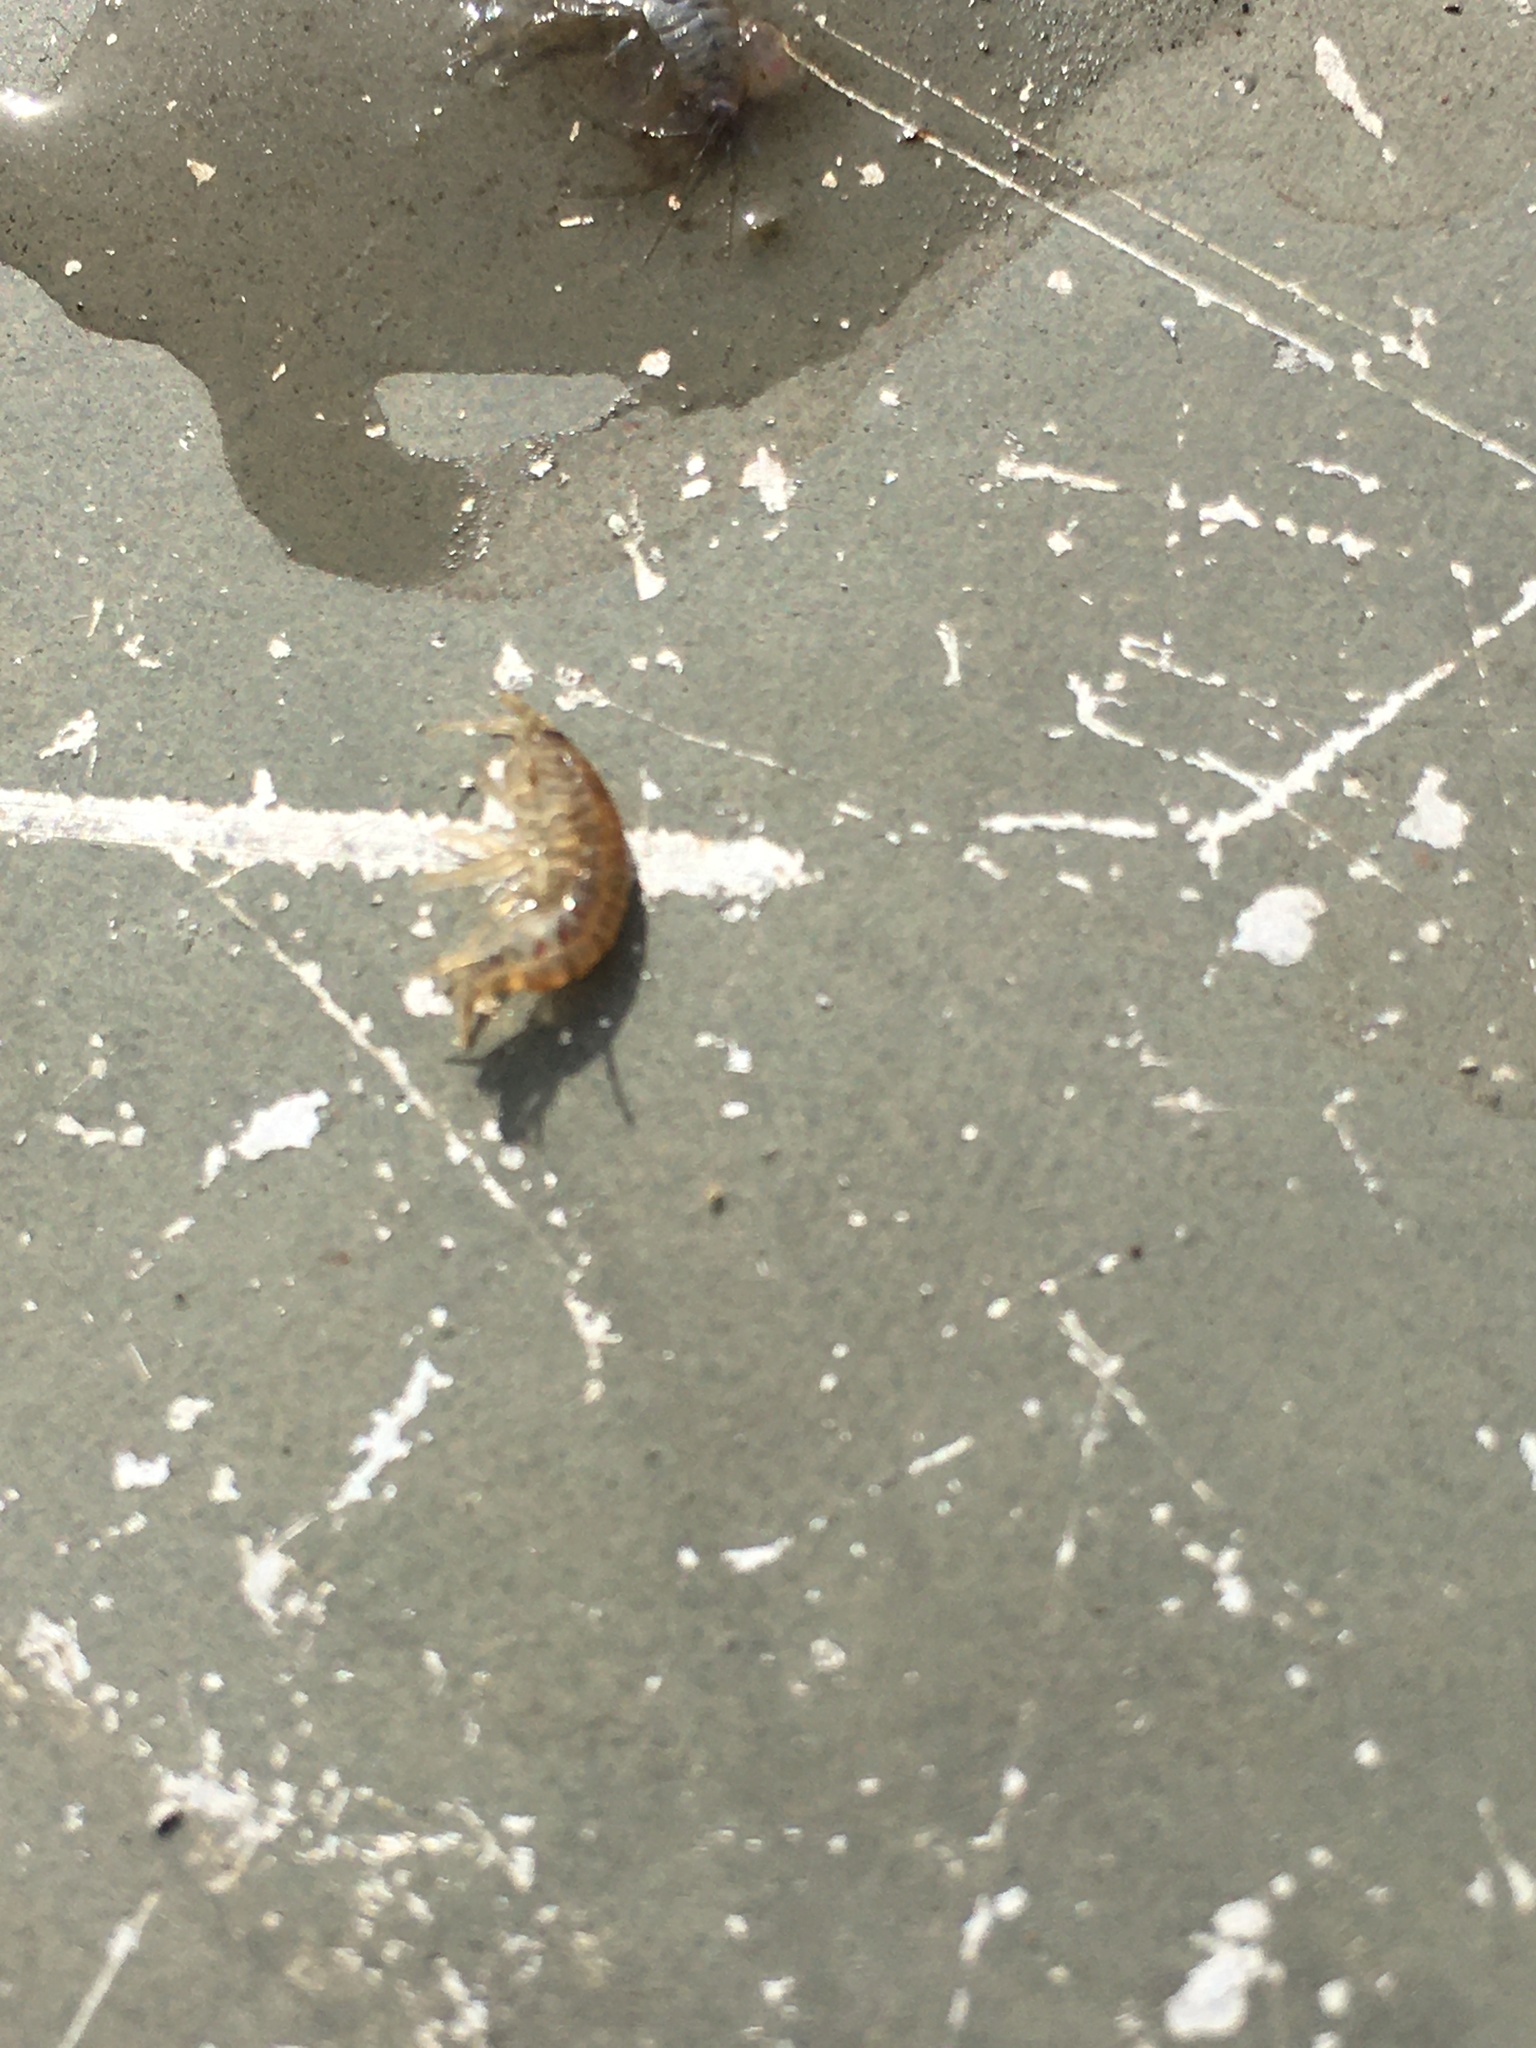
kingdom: Animalia
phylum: Arthropoda
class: Malacostraca
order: Amphipoda
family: Gammaridae
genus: Gammarus
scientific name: Gammarus
